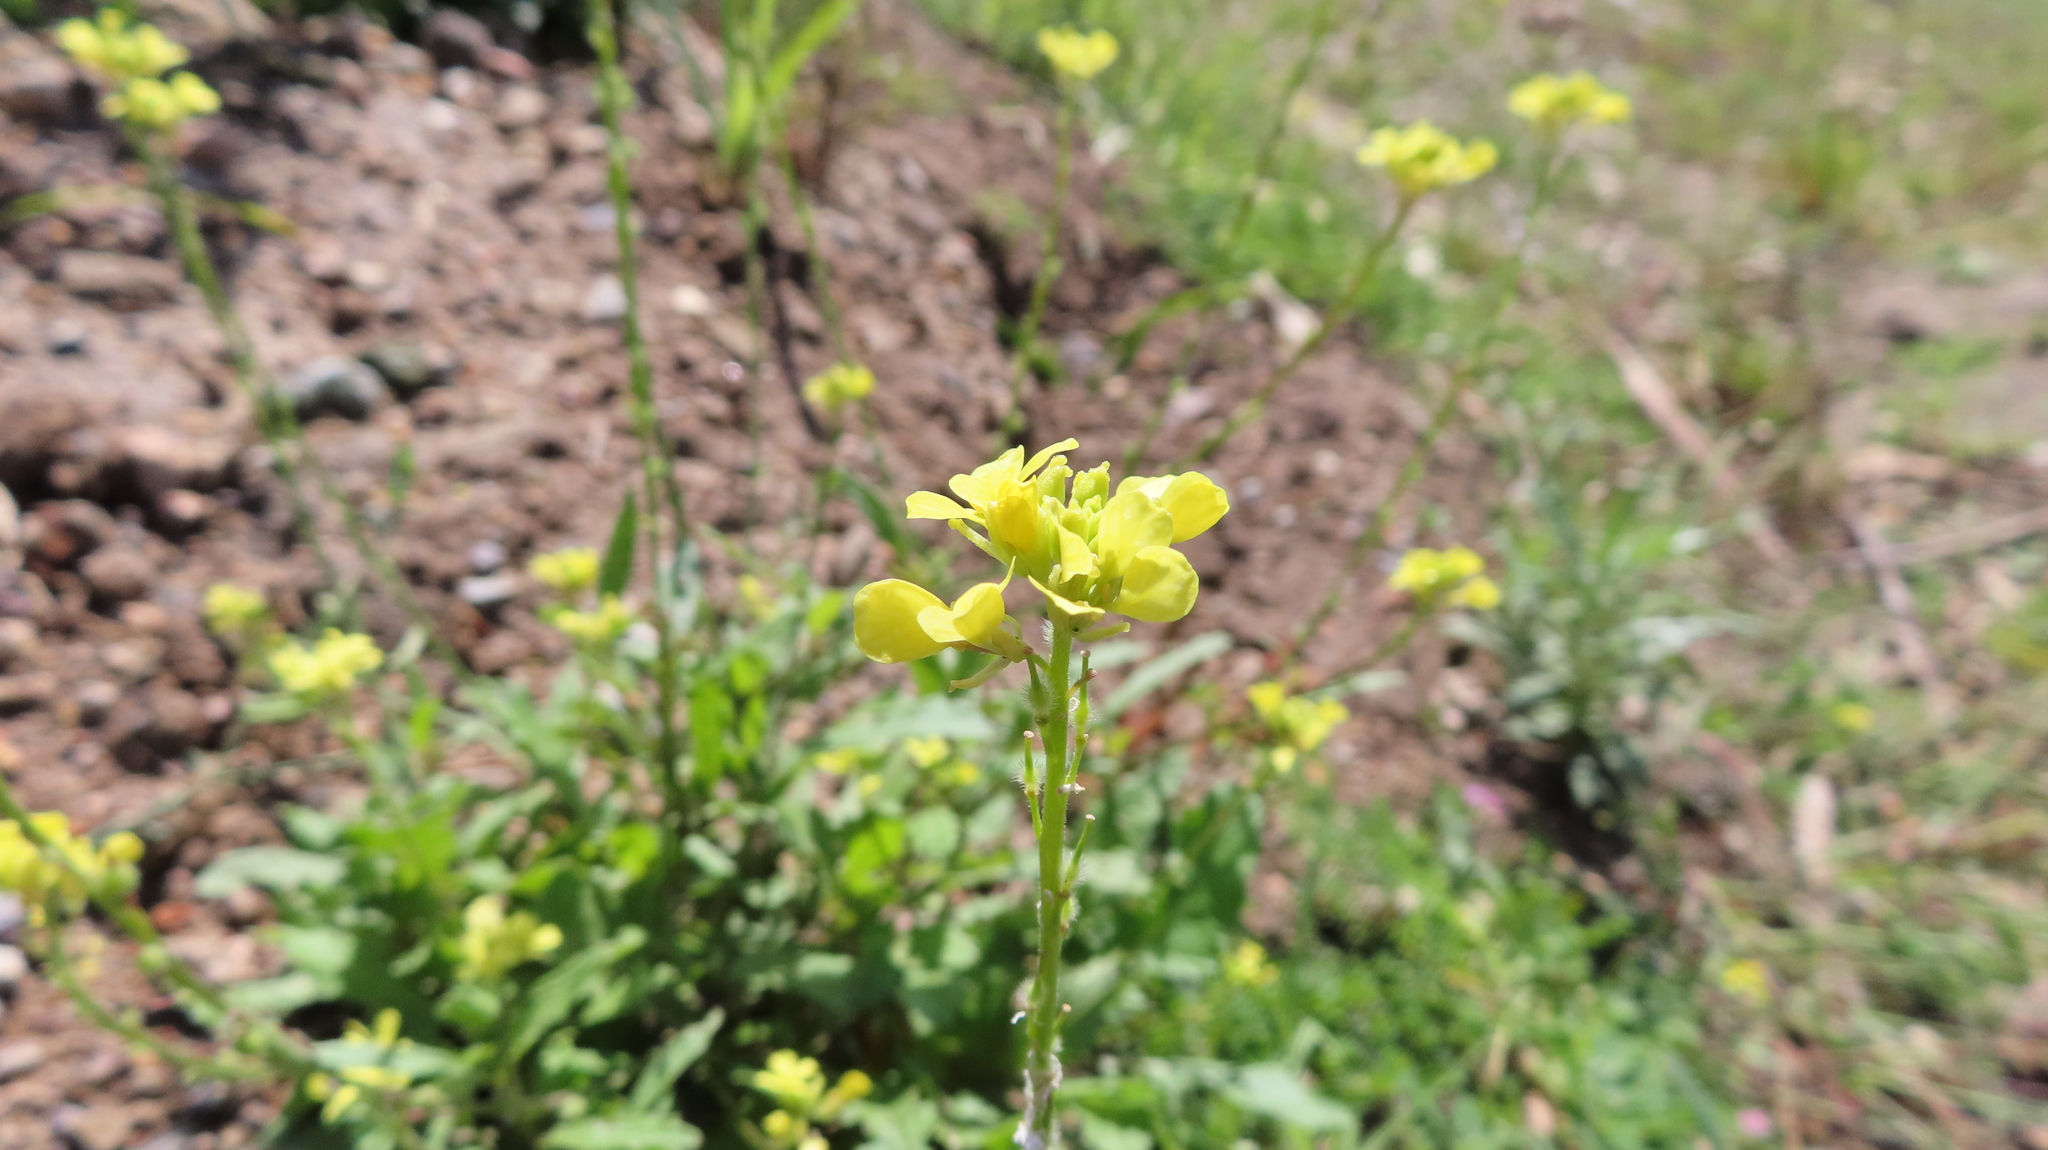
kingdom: Plantae
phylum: Tracheophyta
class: Magnoliopsida
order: Brassicales
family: Brassicaceae
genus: Rapistrum
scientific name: Rapistrum rugosum
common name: Annual bastardcabbage
